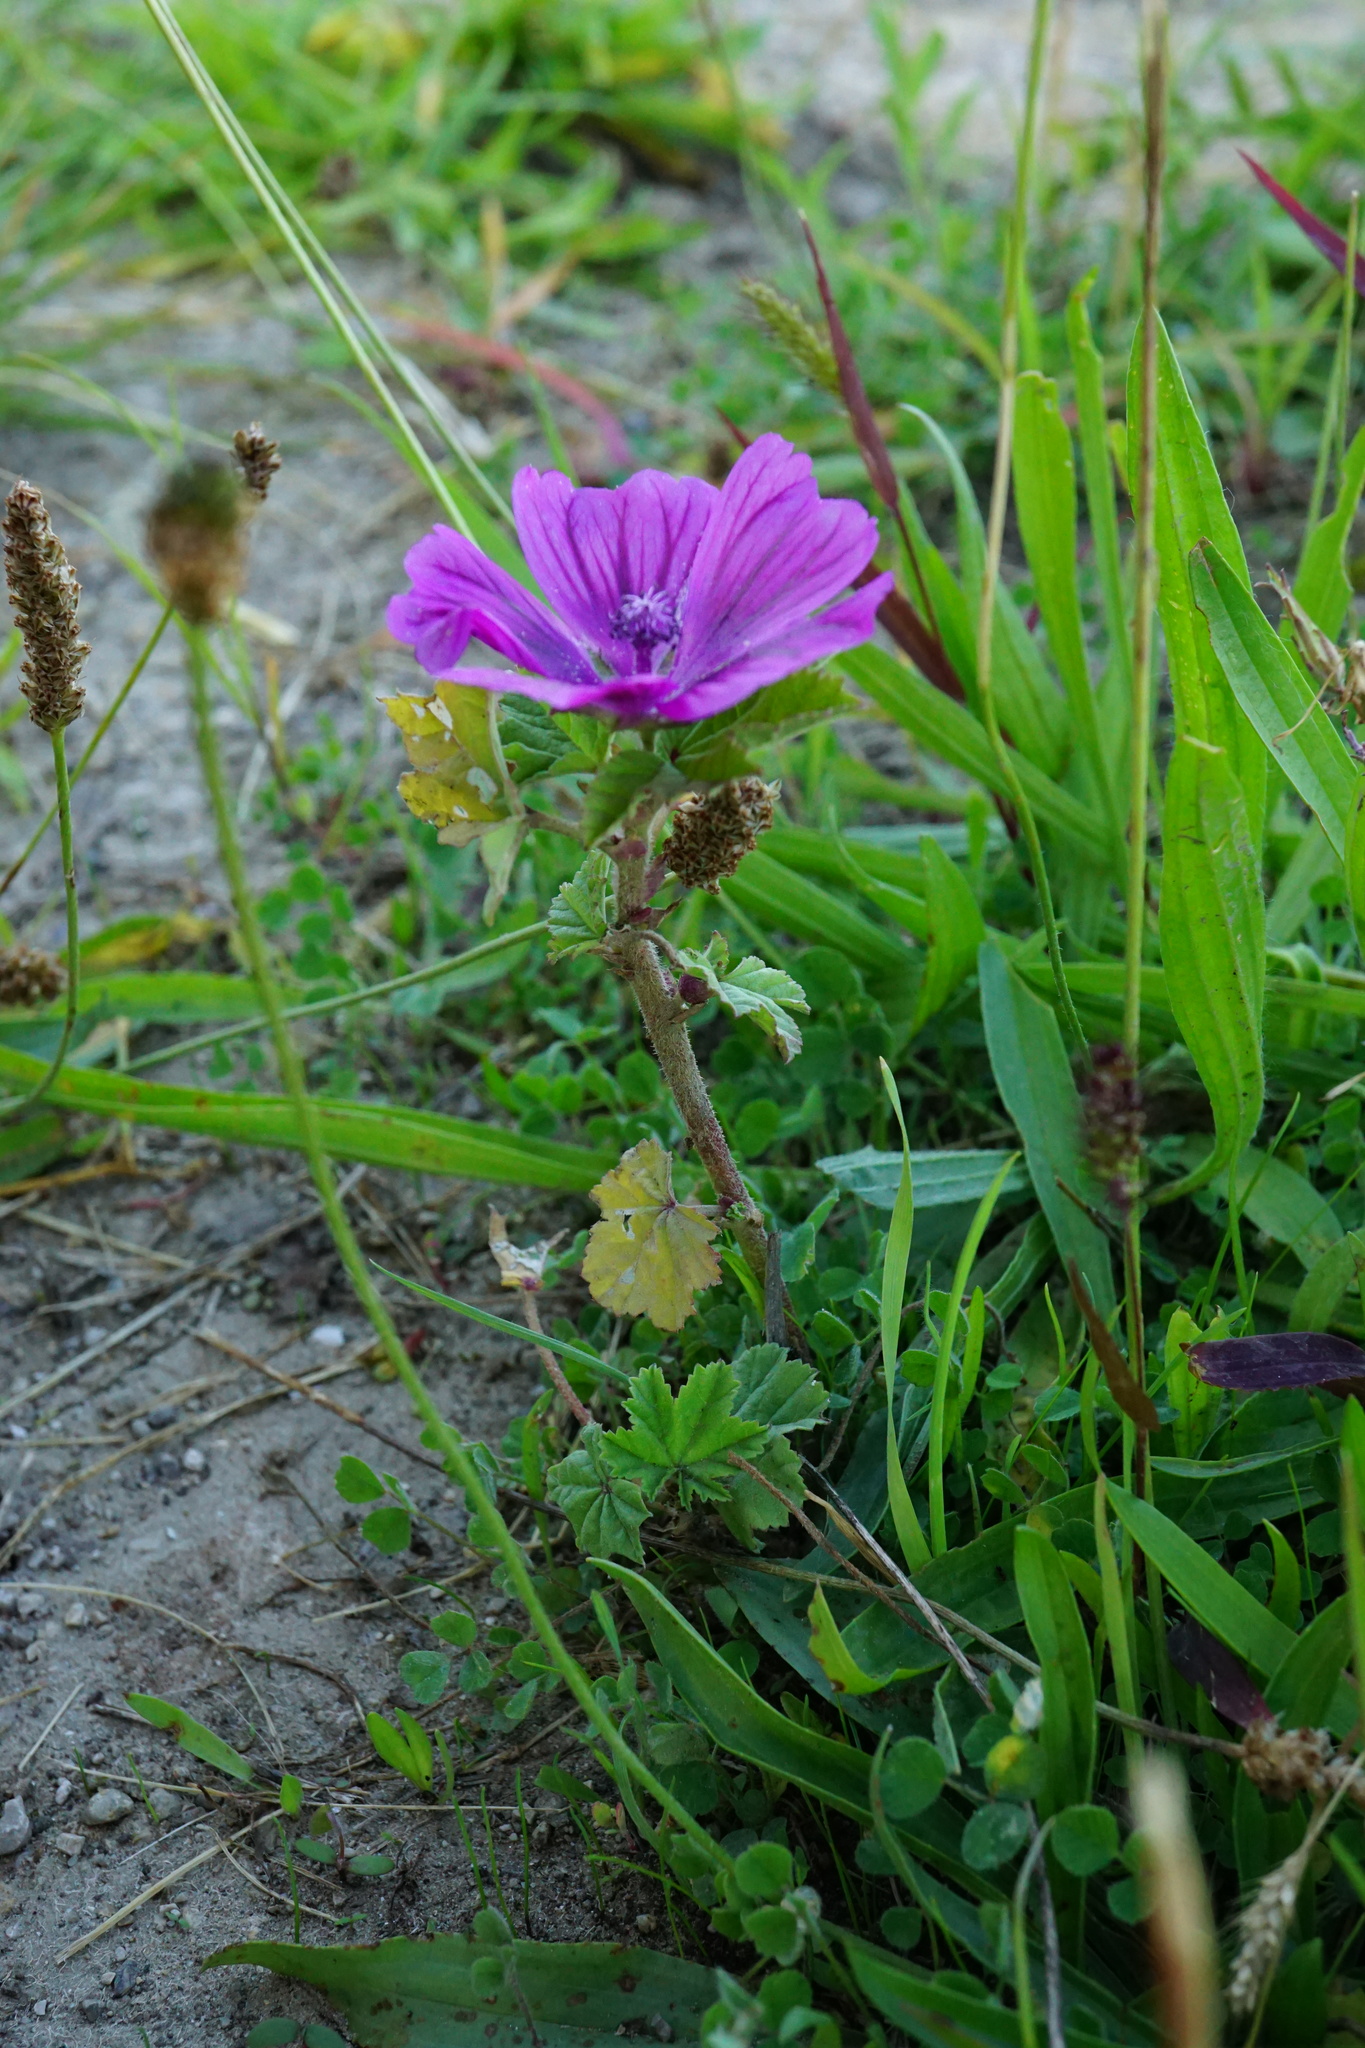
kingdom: Plantae
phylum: Tracheophyta
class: Magnoliopsida
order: Malvales
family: Malvaceae
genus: Malva
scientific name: Malva sylvestris
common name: Common mallow
